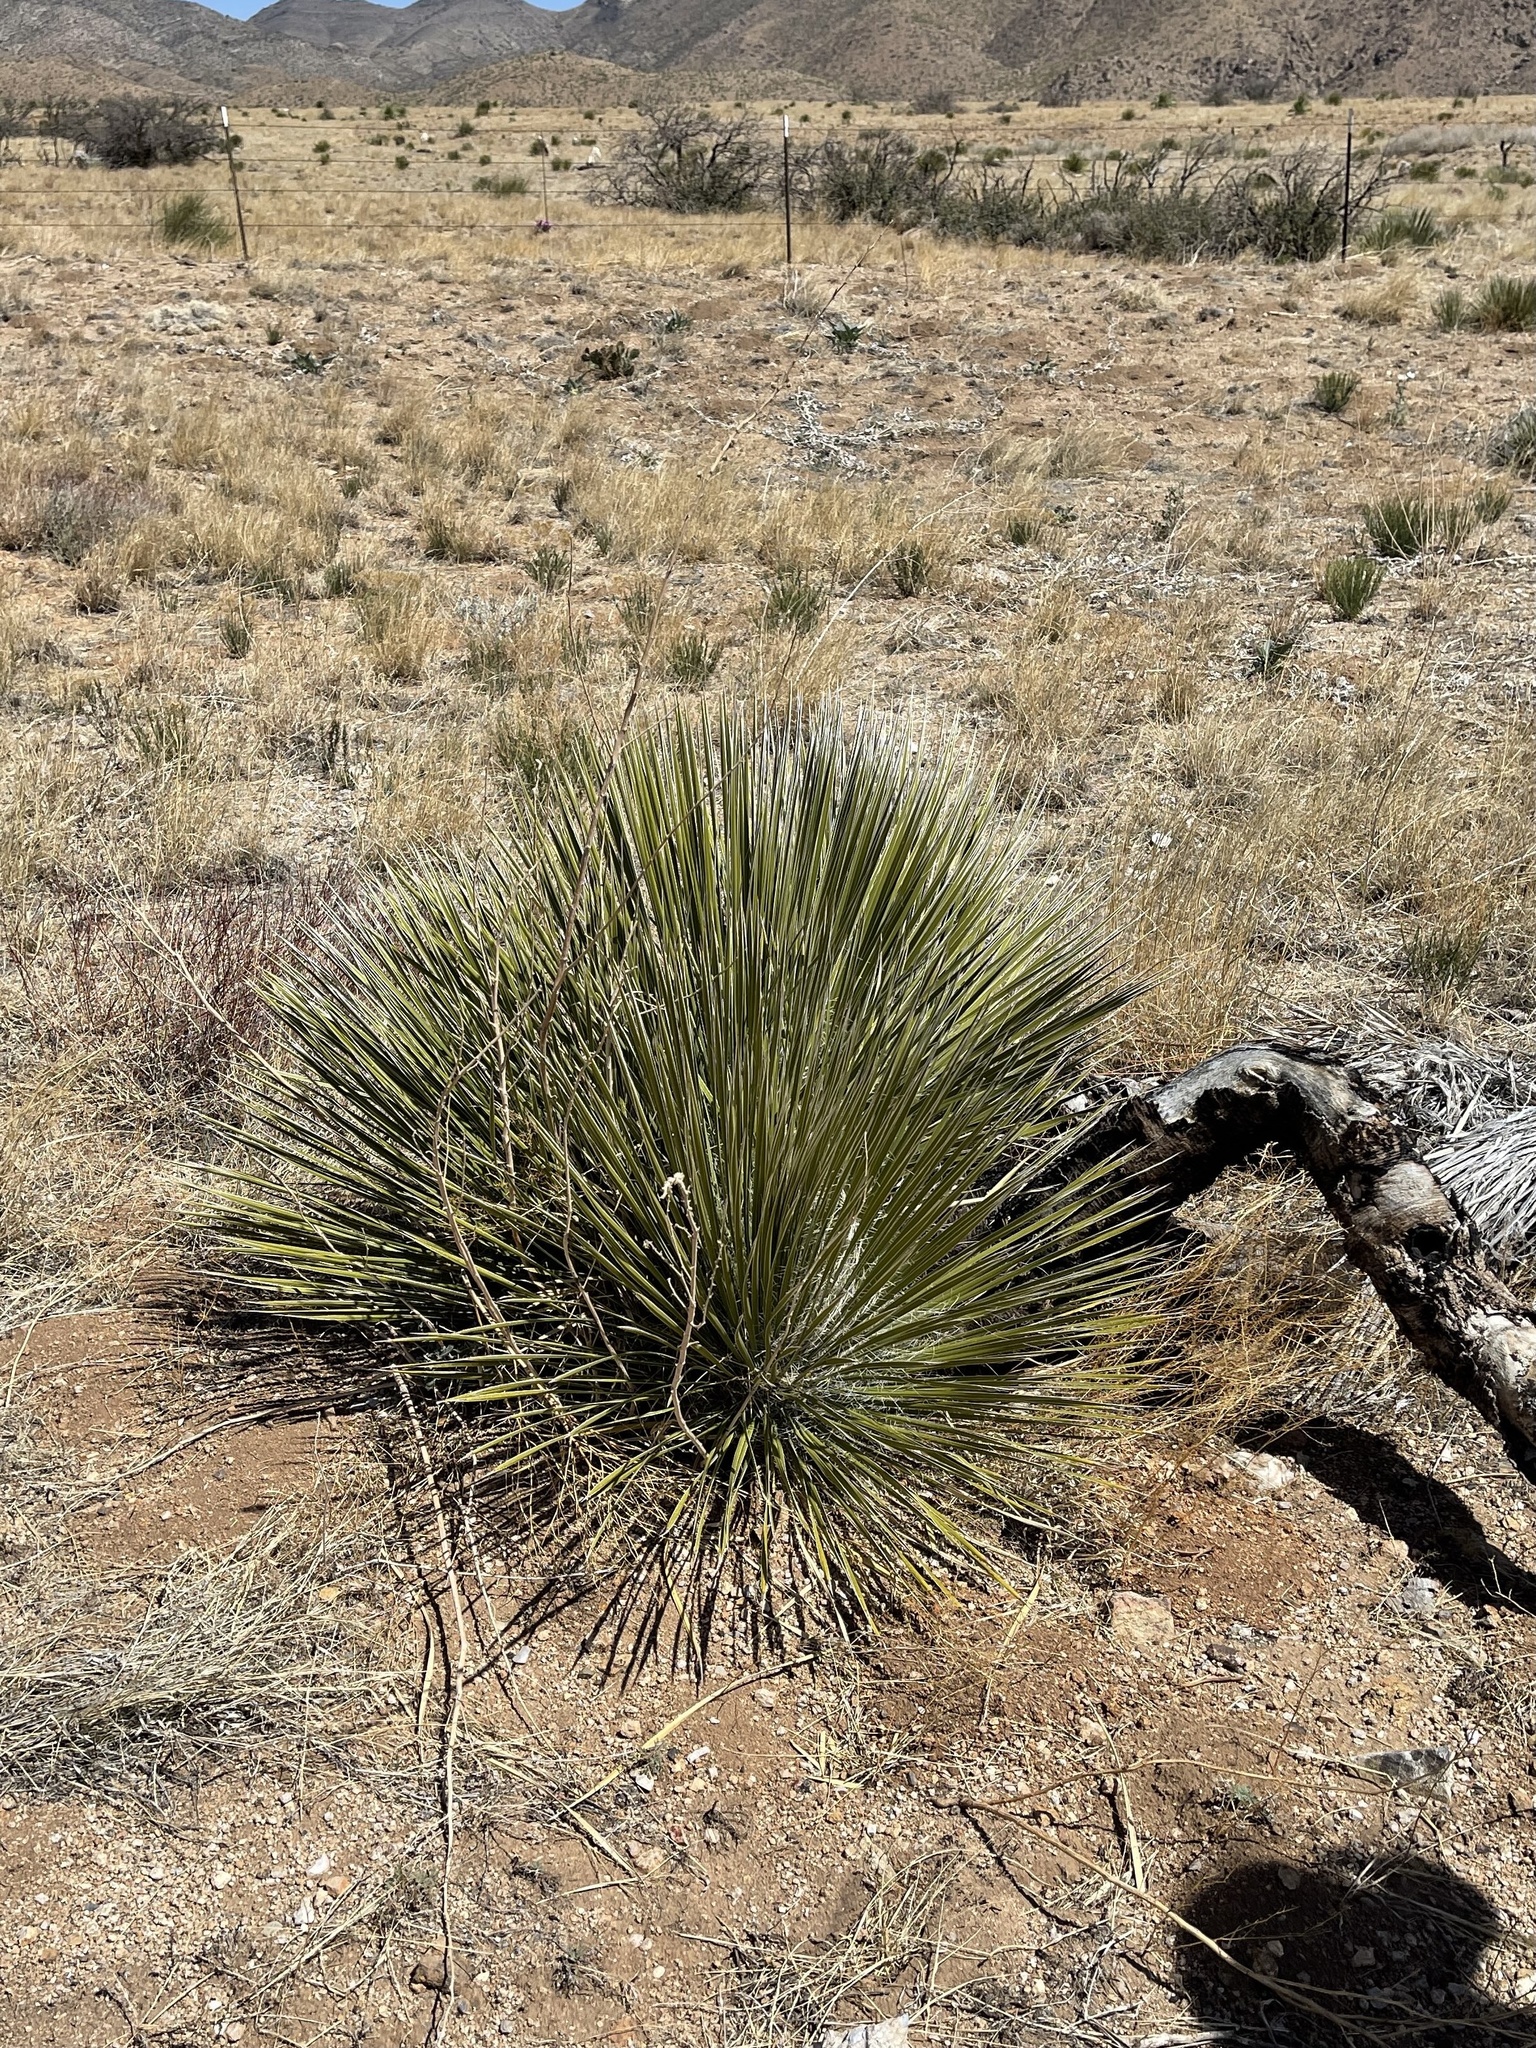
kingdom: Plantae
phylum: Tracheophyta
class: Liliopsida
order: Asparagales
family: Asparagaceae
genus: Yucca
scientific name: Yucca elata
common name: Palmella
